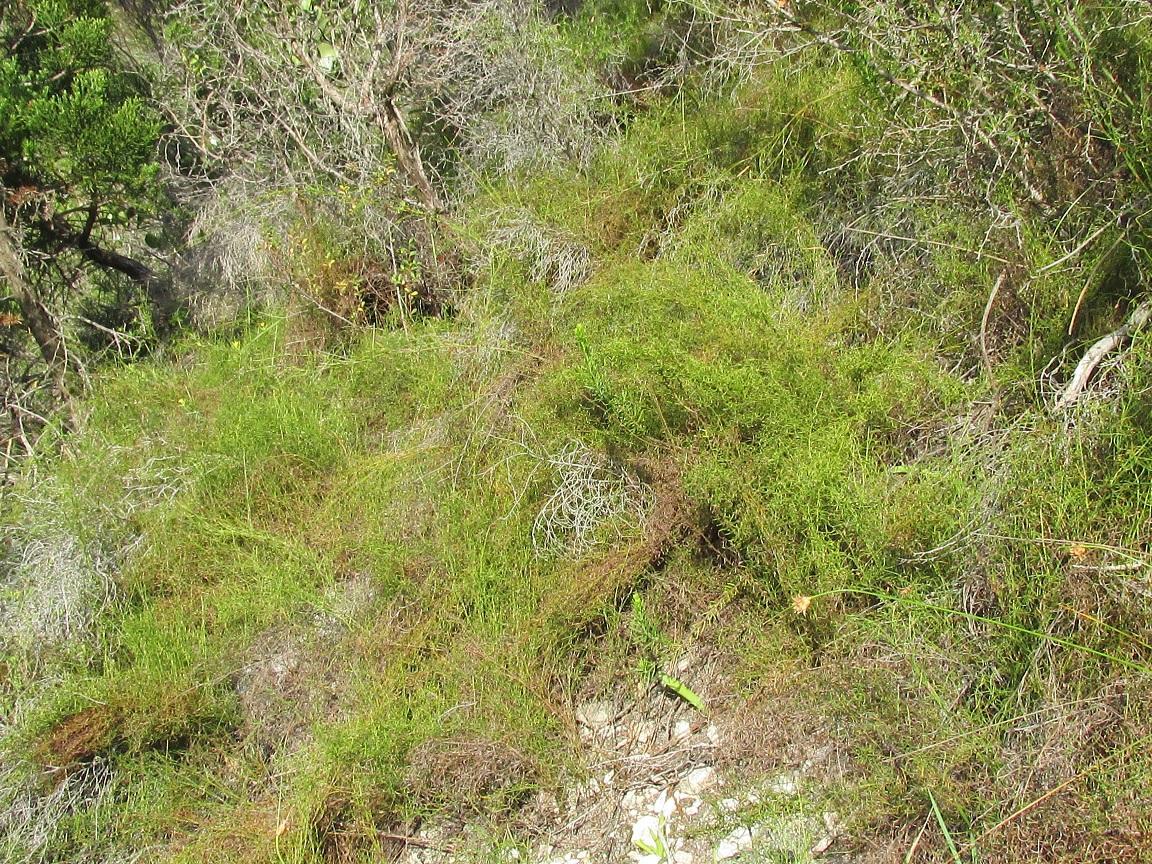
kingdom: Plantae
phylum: Tracheophyta
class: Liliopsida
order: Poales
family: Restionaceae
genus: Restio
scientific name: Restio cincinnatus
